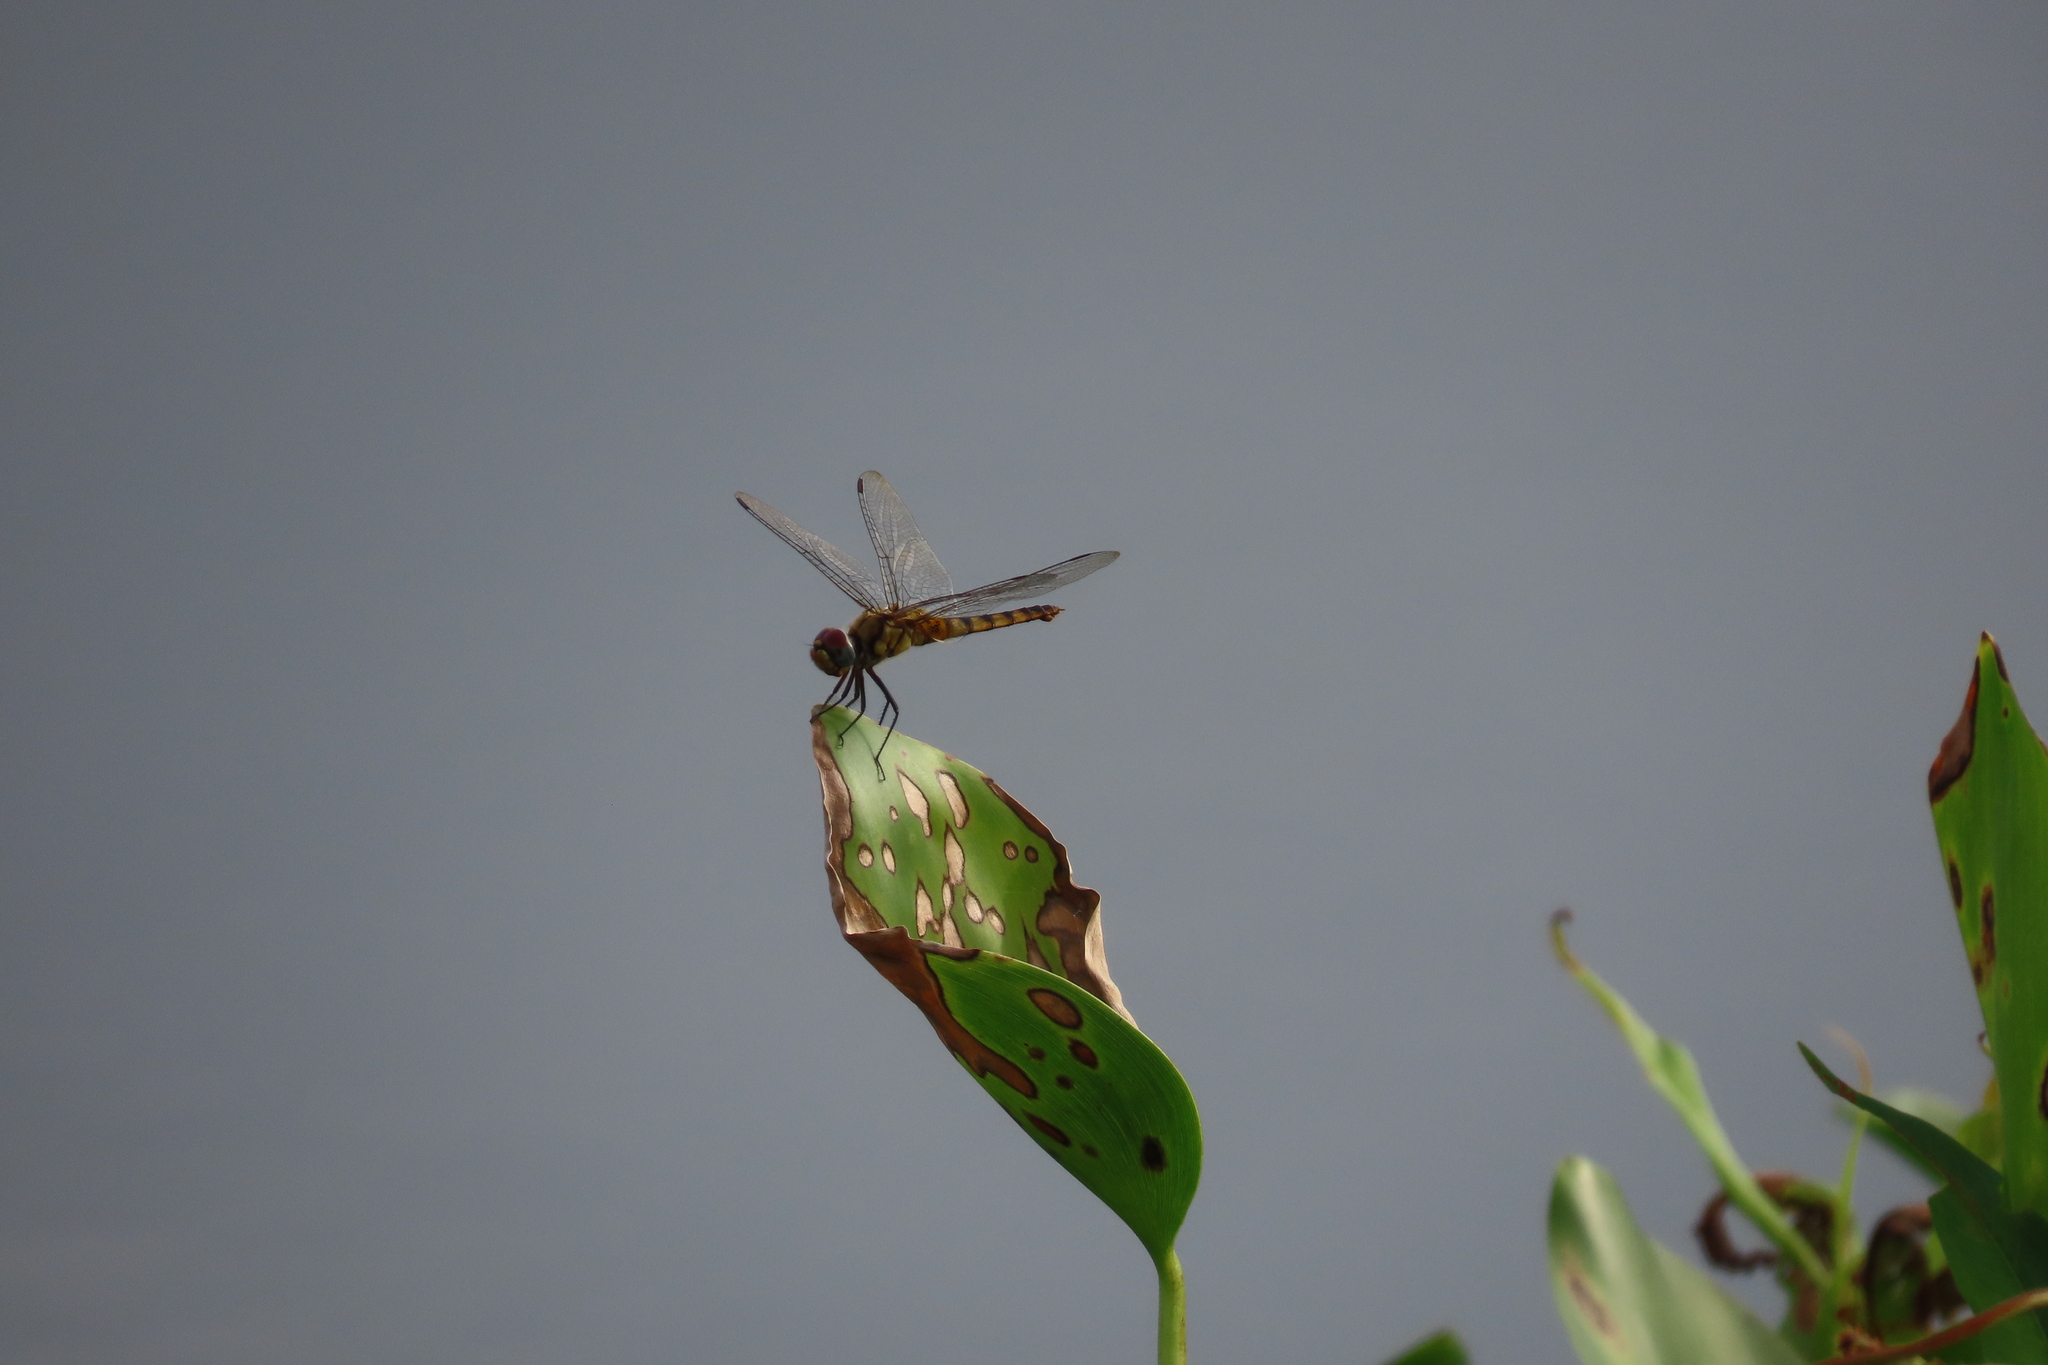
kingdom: Animalia
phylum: Arthropoda
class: Insecta
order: Odonata
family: Libellulidae
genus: Urothemis
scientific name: Urothemis signata
